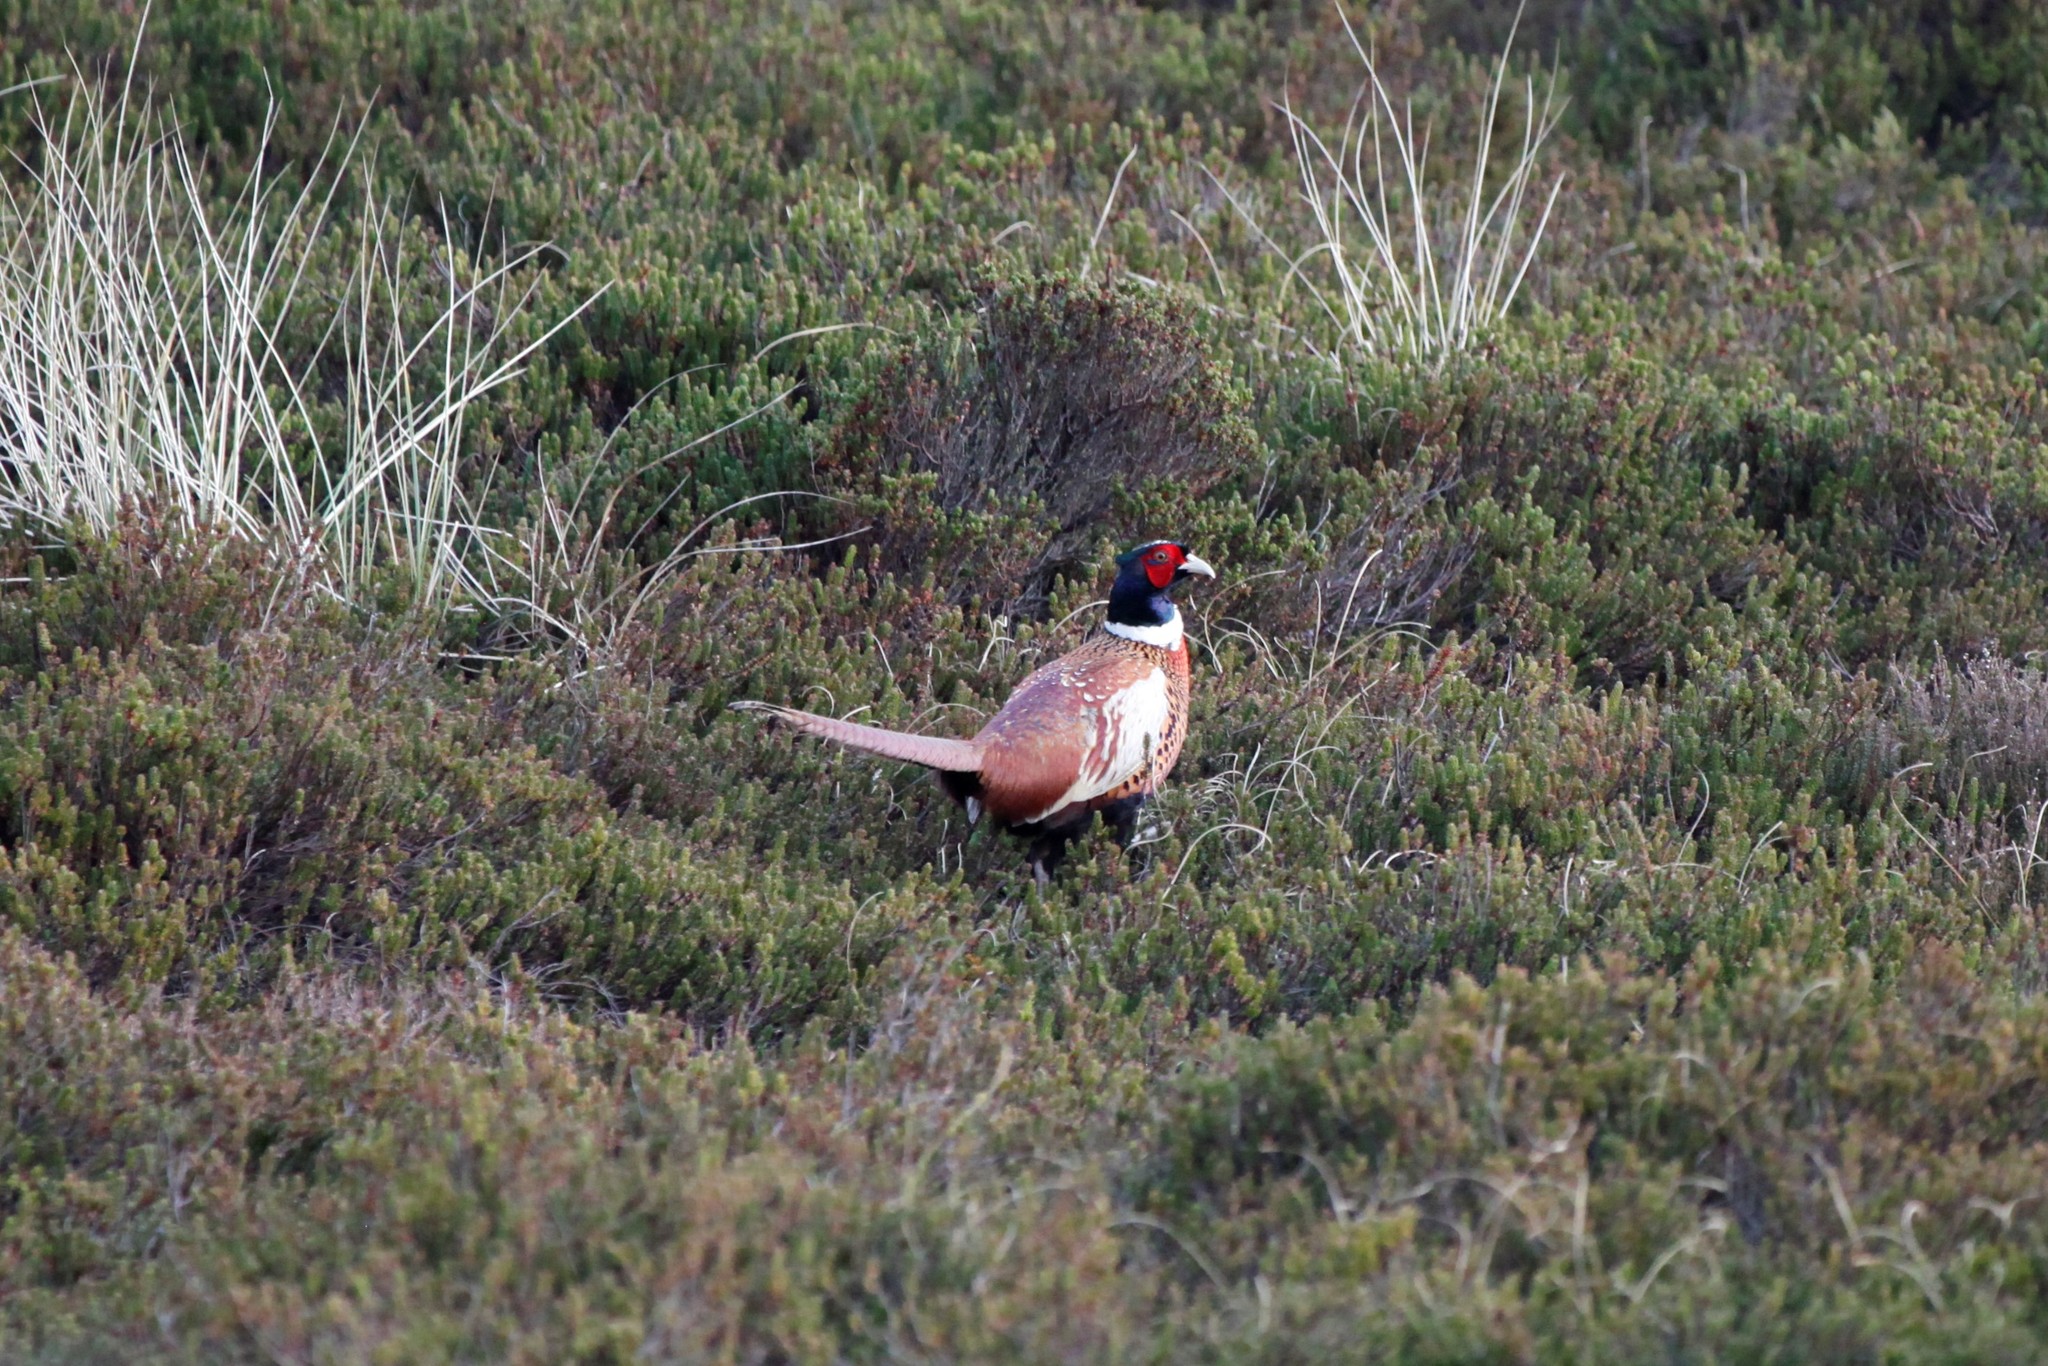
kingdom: Animalia
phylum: Chordata
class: Aves
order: Galliformes
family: Phasianidae
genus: Phasianus
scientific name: Phasianus colchicus
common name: Common pheasant
